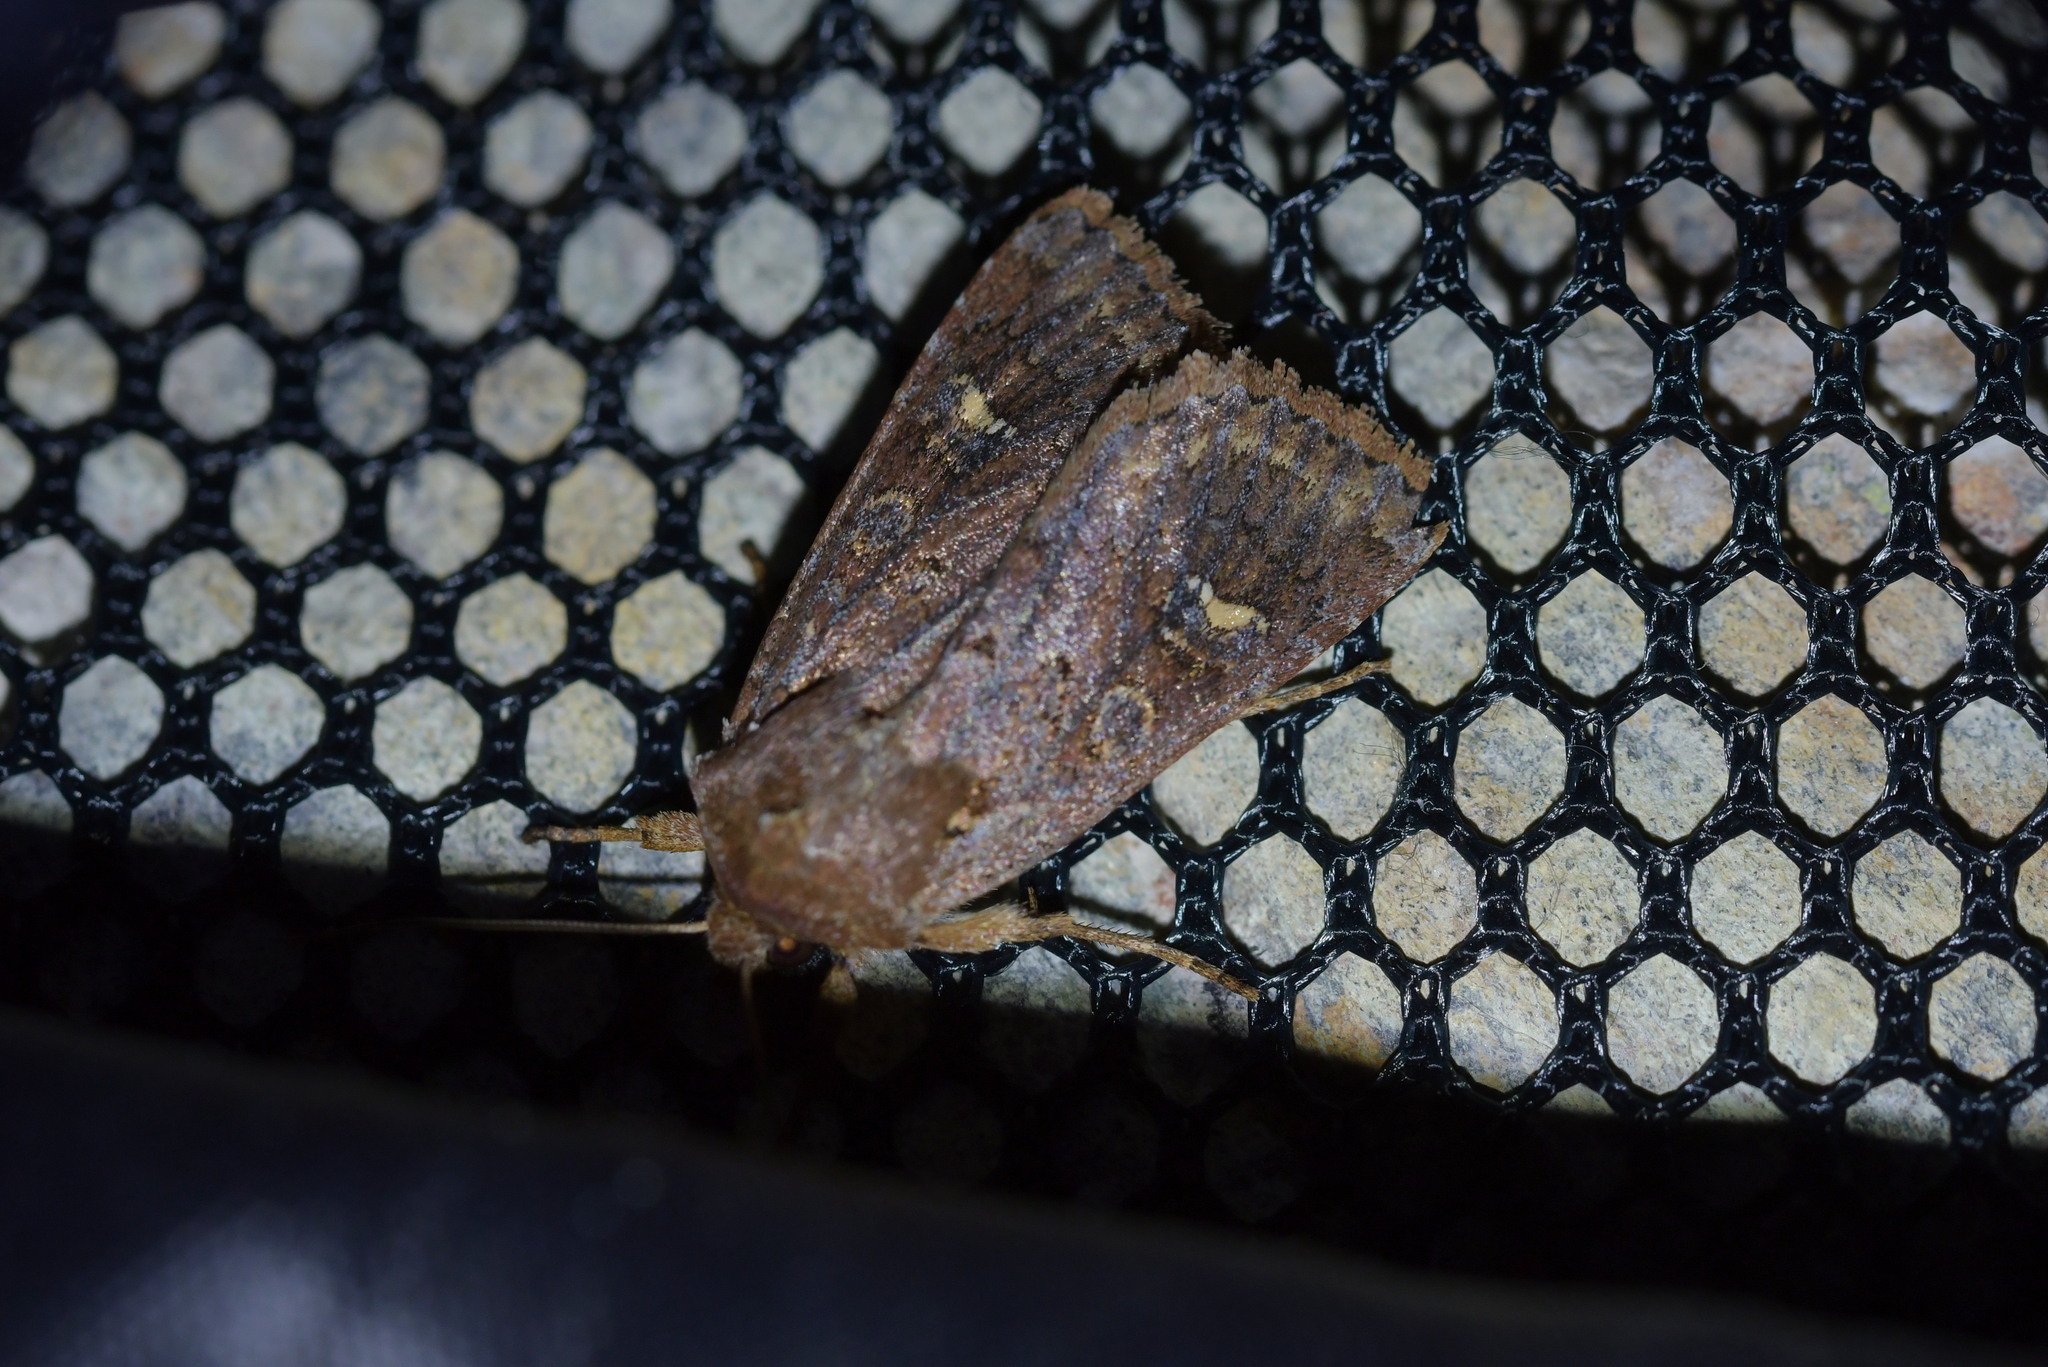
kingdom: Animalia
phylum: Arthropoda
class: Insecta
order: Lepidoptera
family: Noctuidae
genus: Ichneutica
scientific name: Ichneutica agorastis
